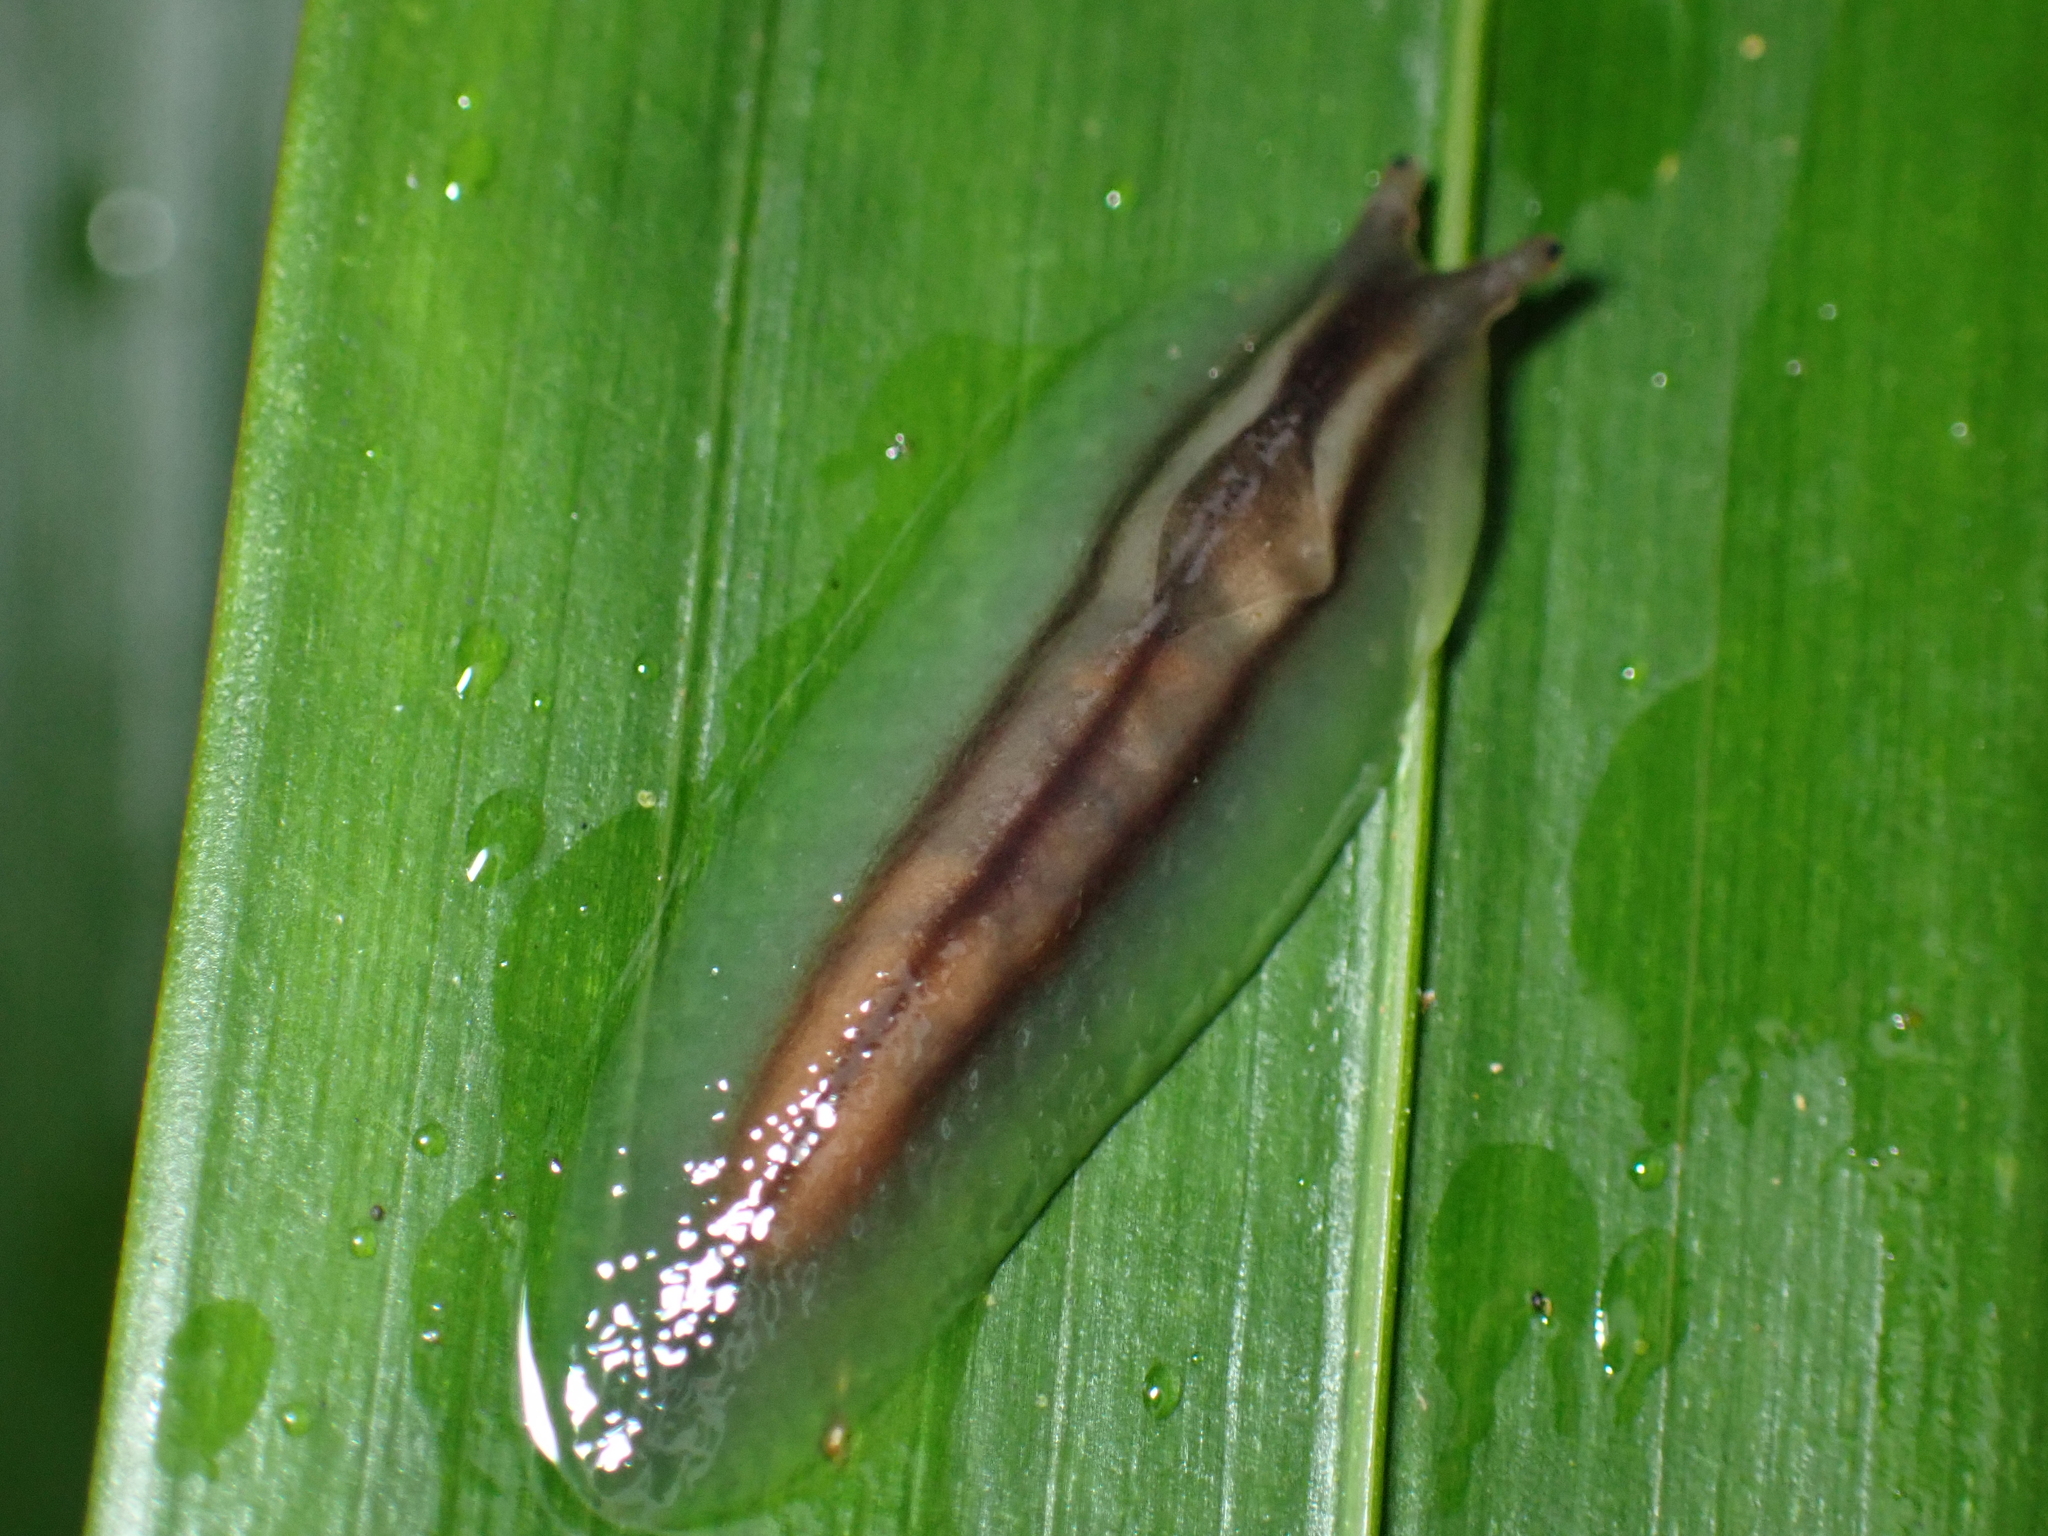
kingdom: Animalia
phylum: Mollusca
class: Gastropoda
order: Stylommatophora
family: Athoracophoridae
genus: Triboniophorus
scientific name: Triboniophorus graeffei
